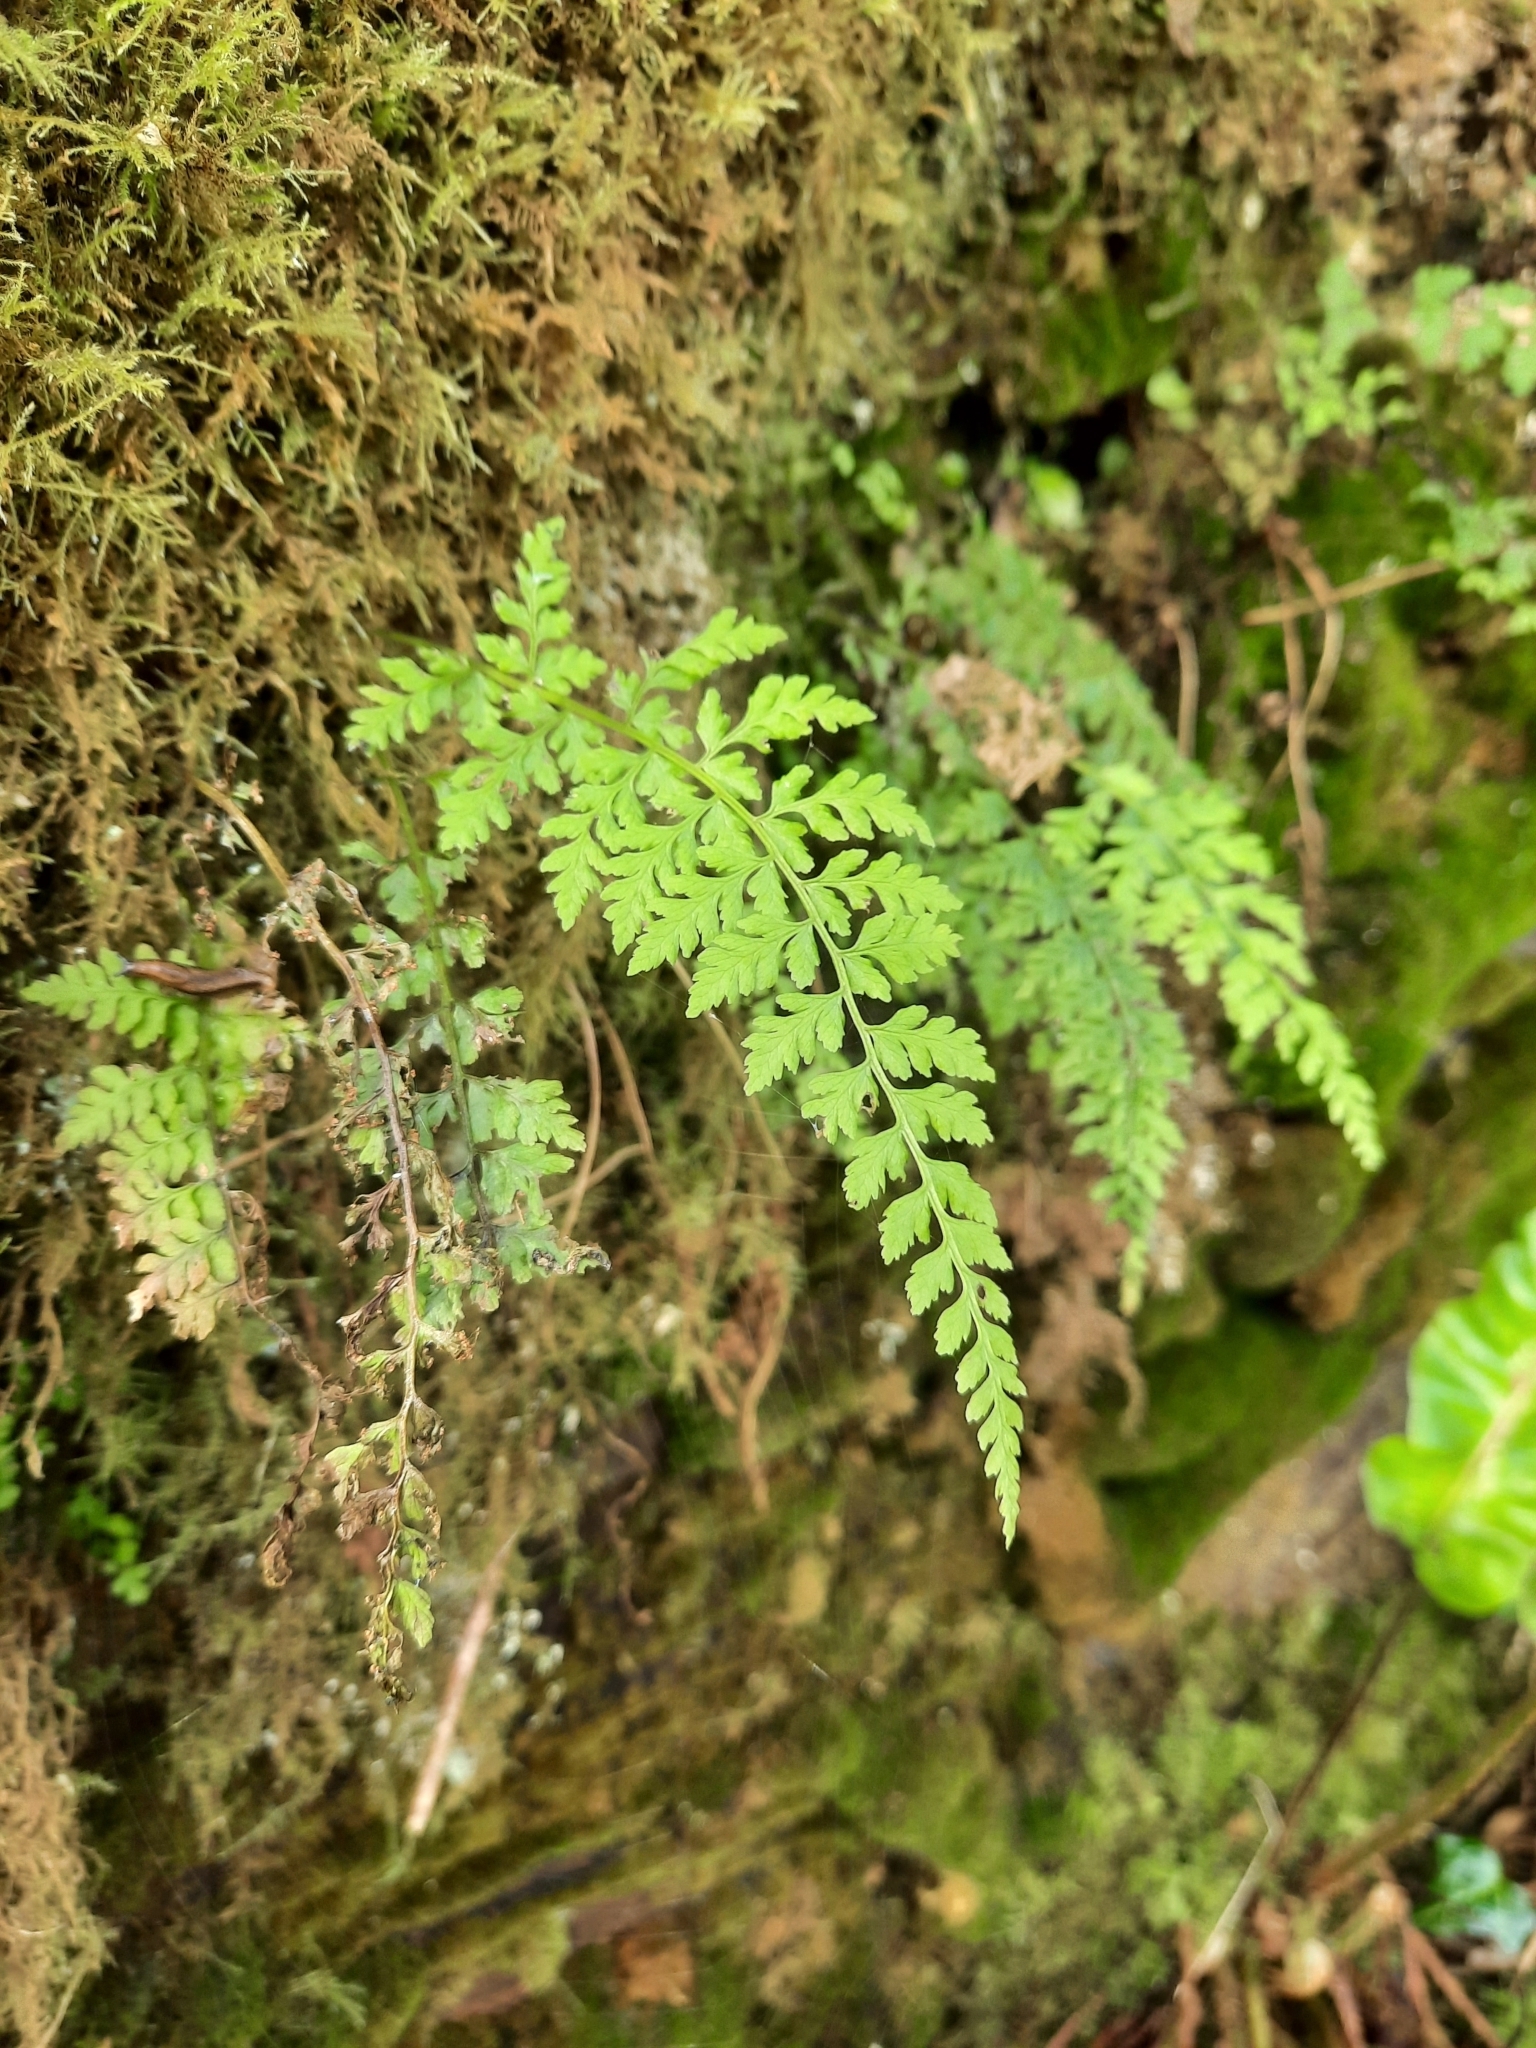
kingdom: Plantae
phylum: Tracheophyta
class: Polypodiopsida
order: Polypodiales
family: Cystopteridaceae
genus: Cystopteris
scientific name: Cystopteris diaphana
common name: Greenish bladder-fern
